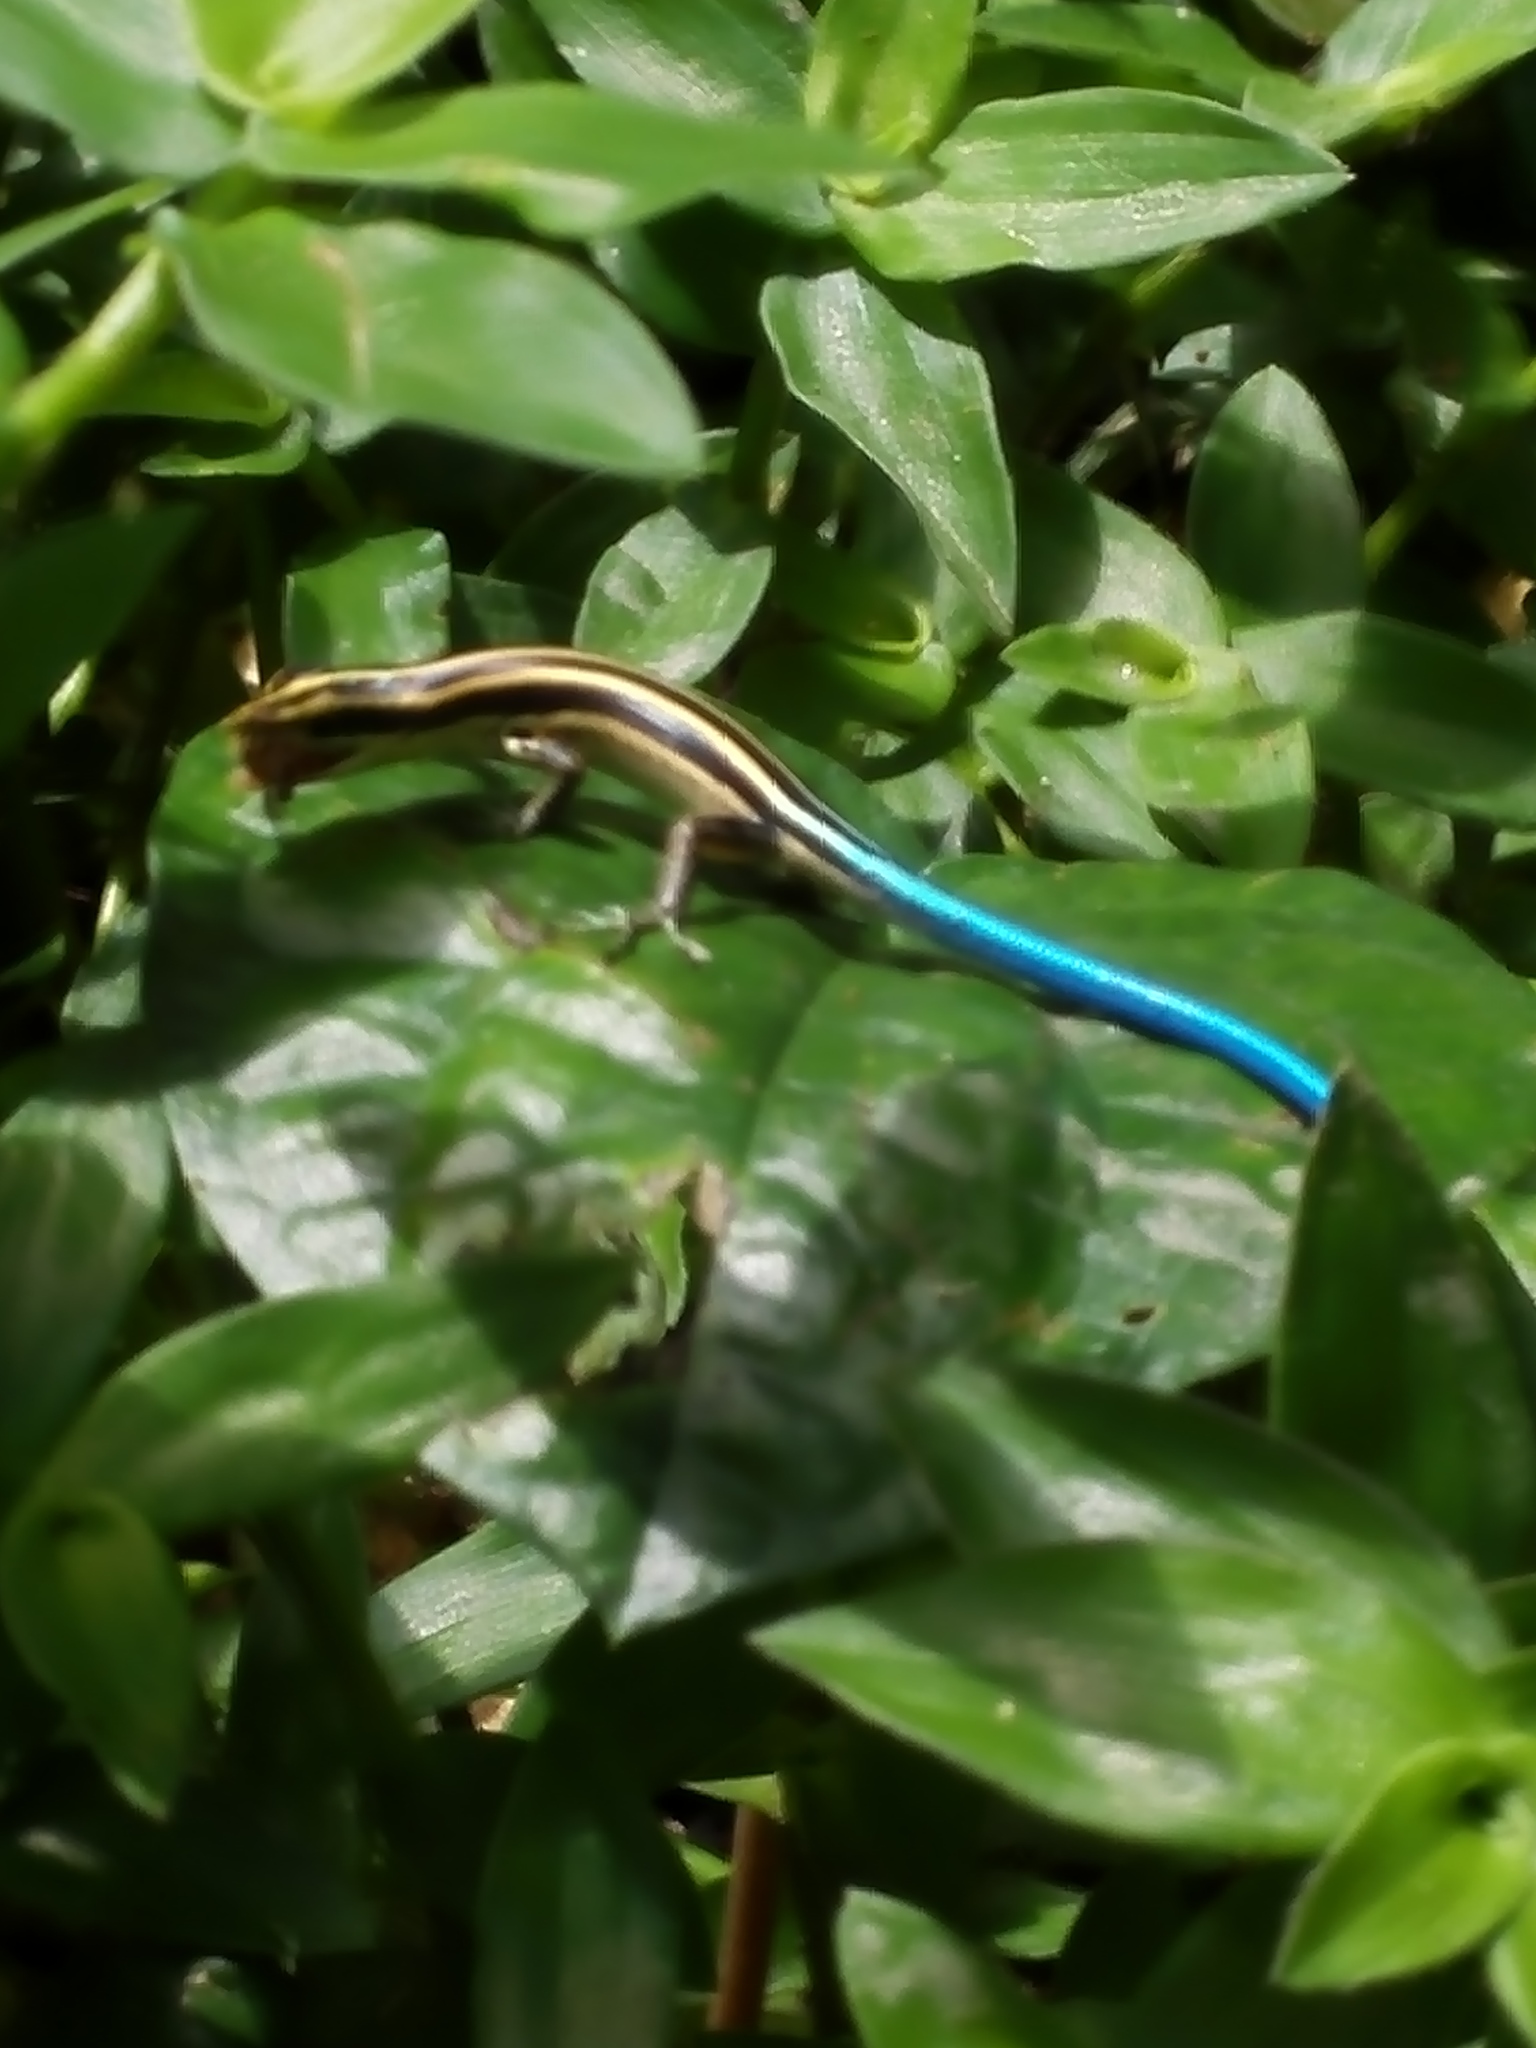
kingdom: Animalia
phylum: Chordata
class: Squamata
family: Scincidae
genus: Emoia
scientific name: Emoia caeruleocauda
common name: Pacific bluetail skink
